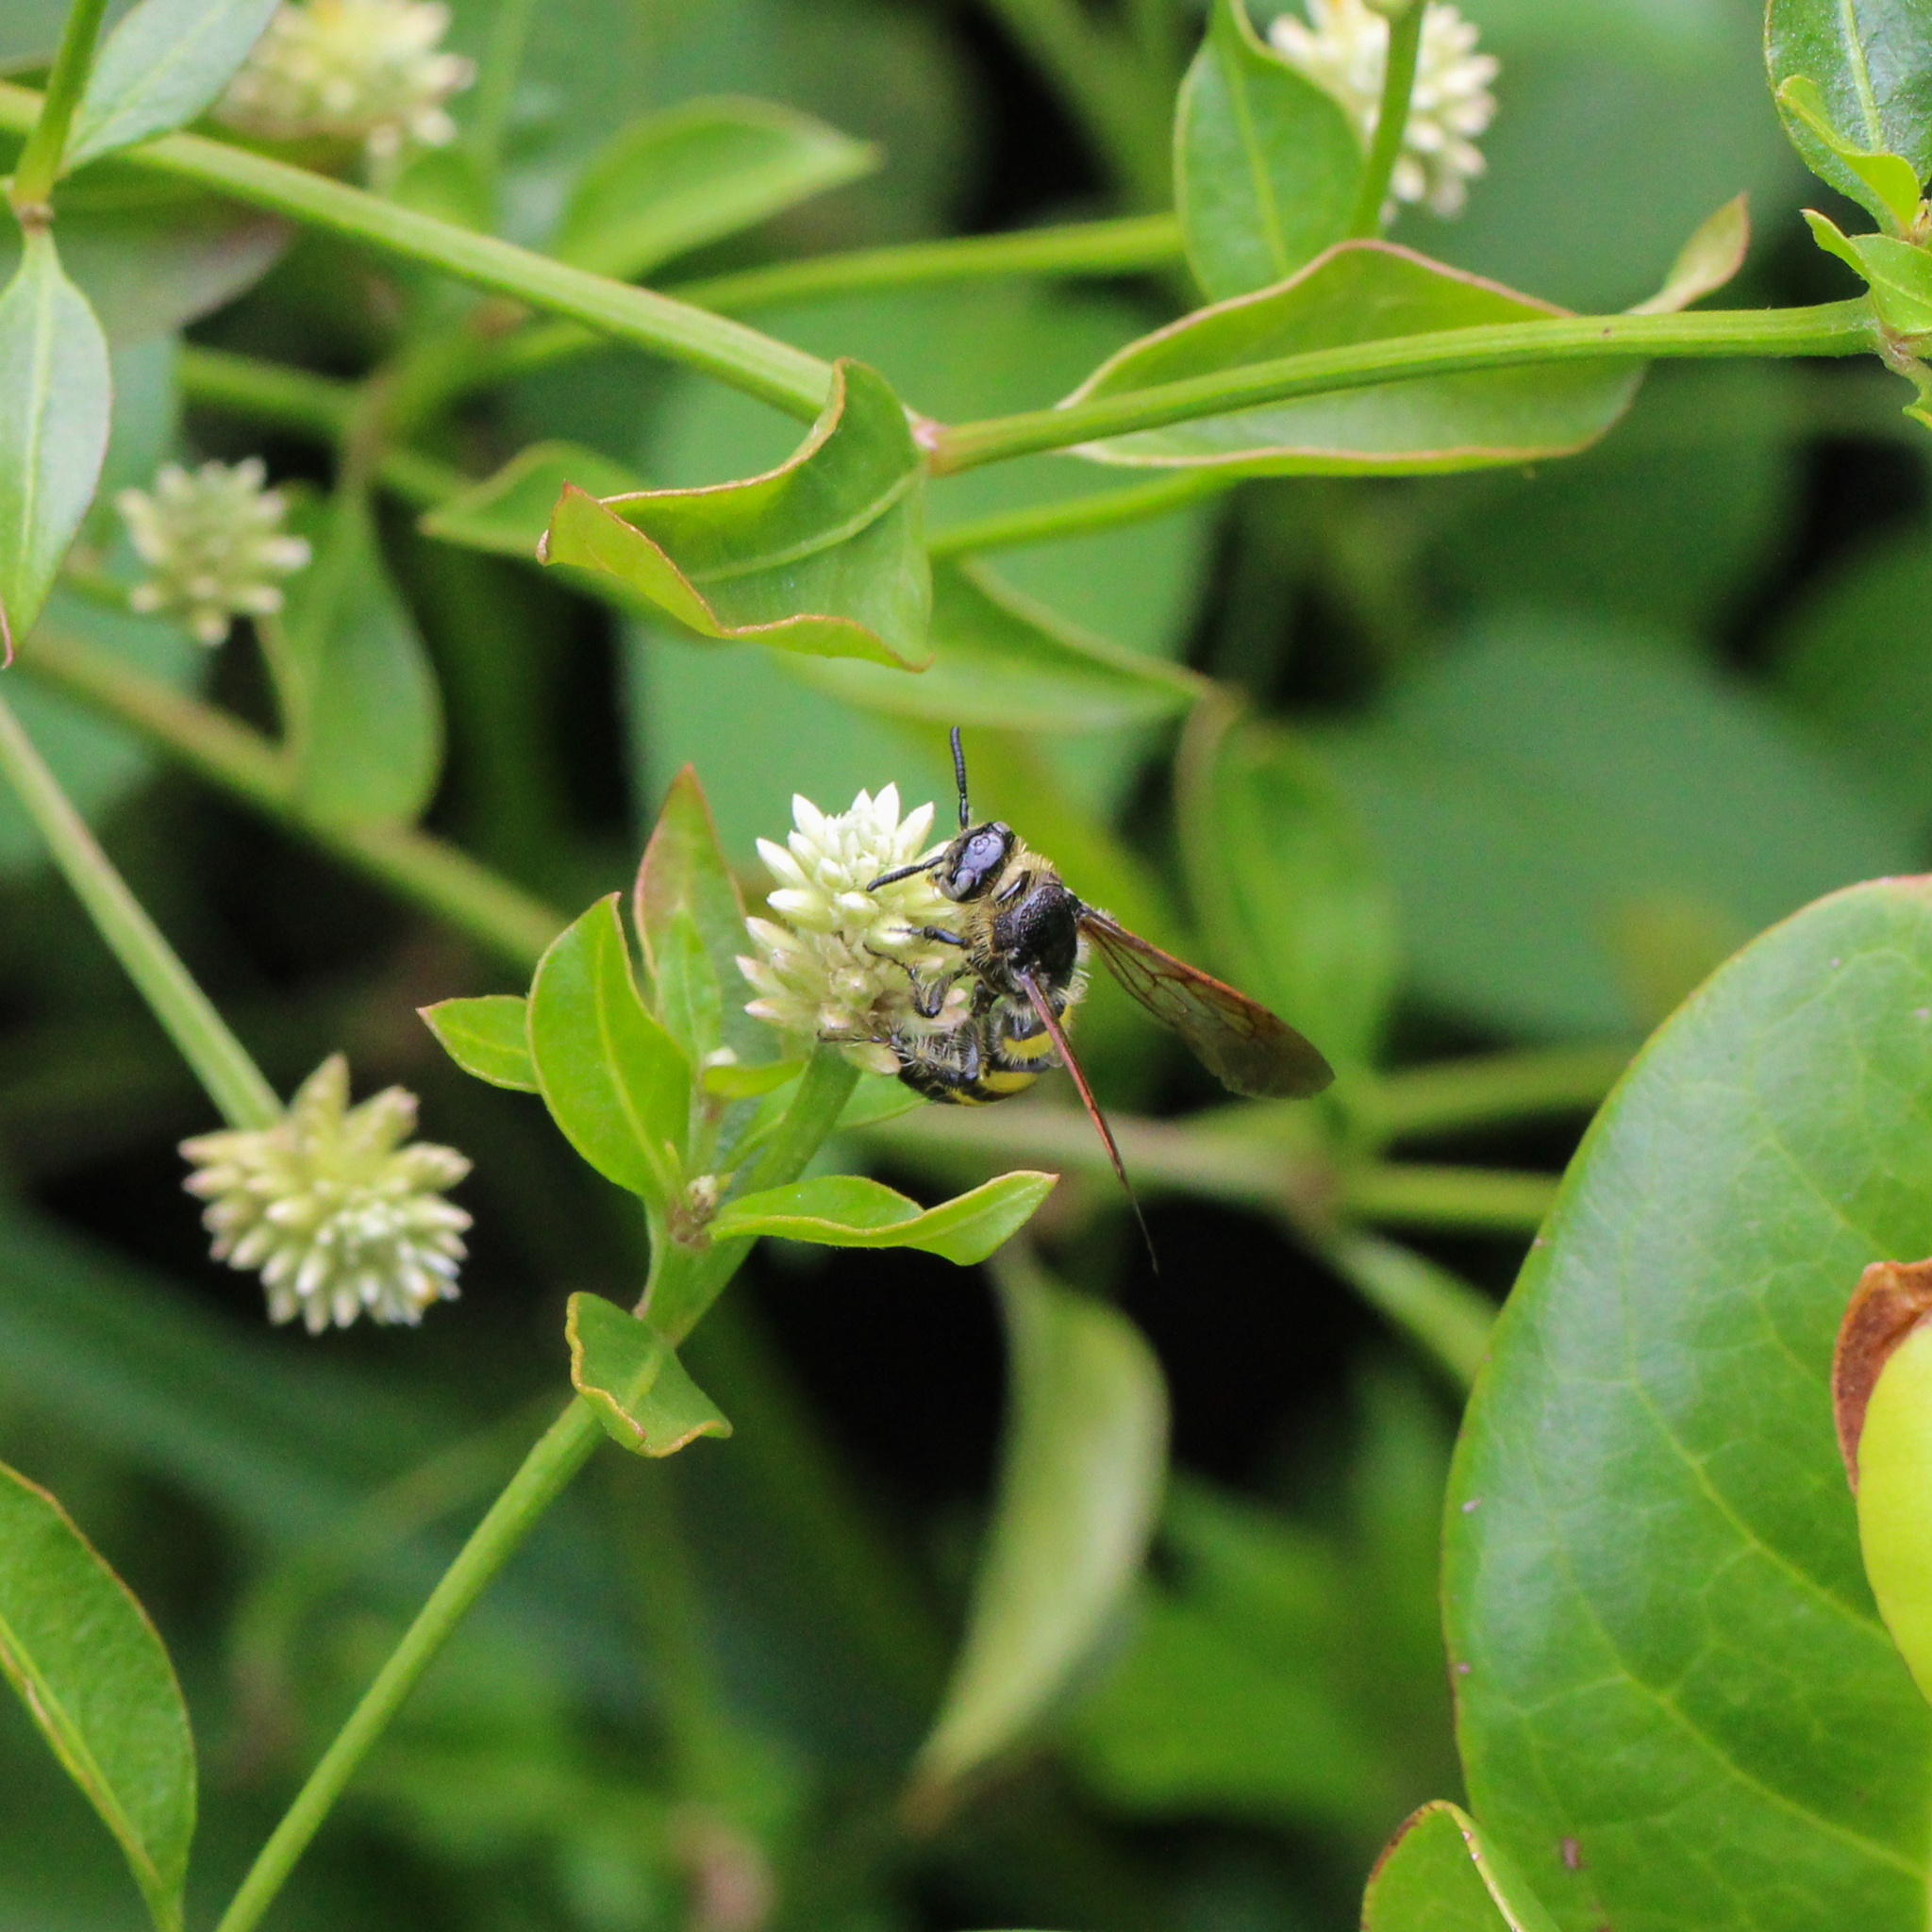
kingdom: Animalia
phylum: Arthropoda
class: Insecta
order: Hymenoptera
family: Scoliidae
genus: Dielis
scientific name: Dielis
